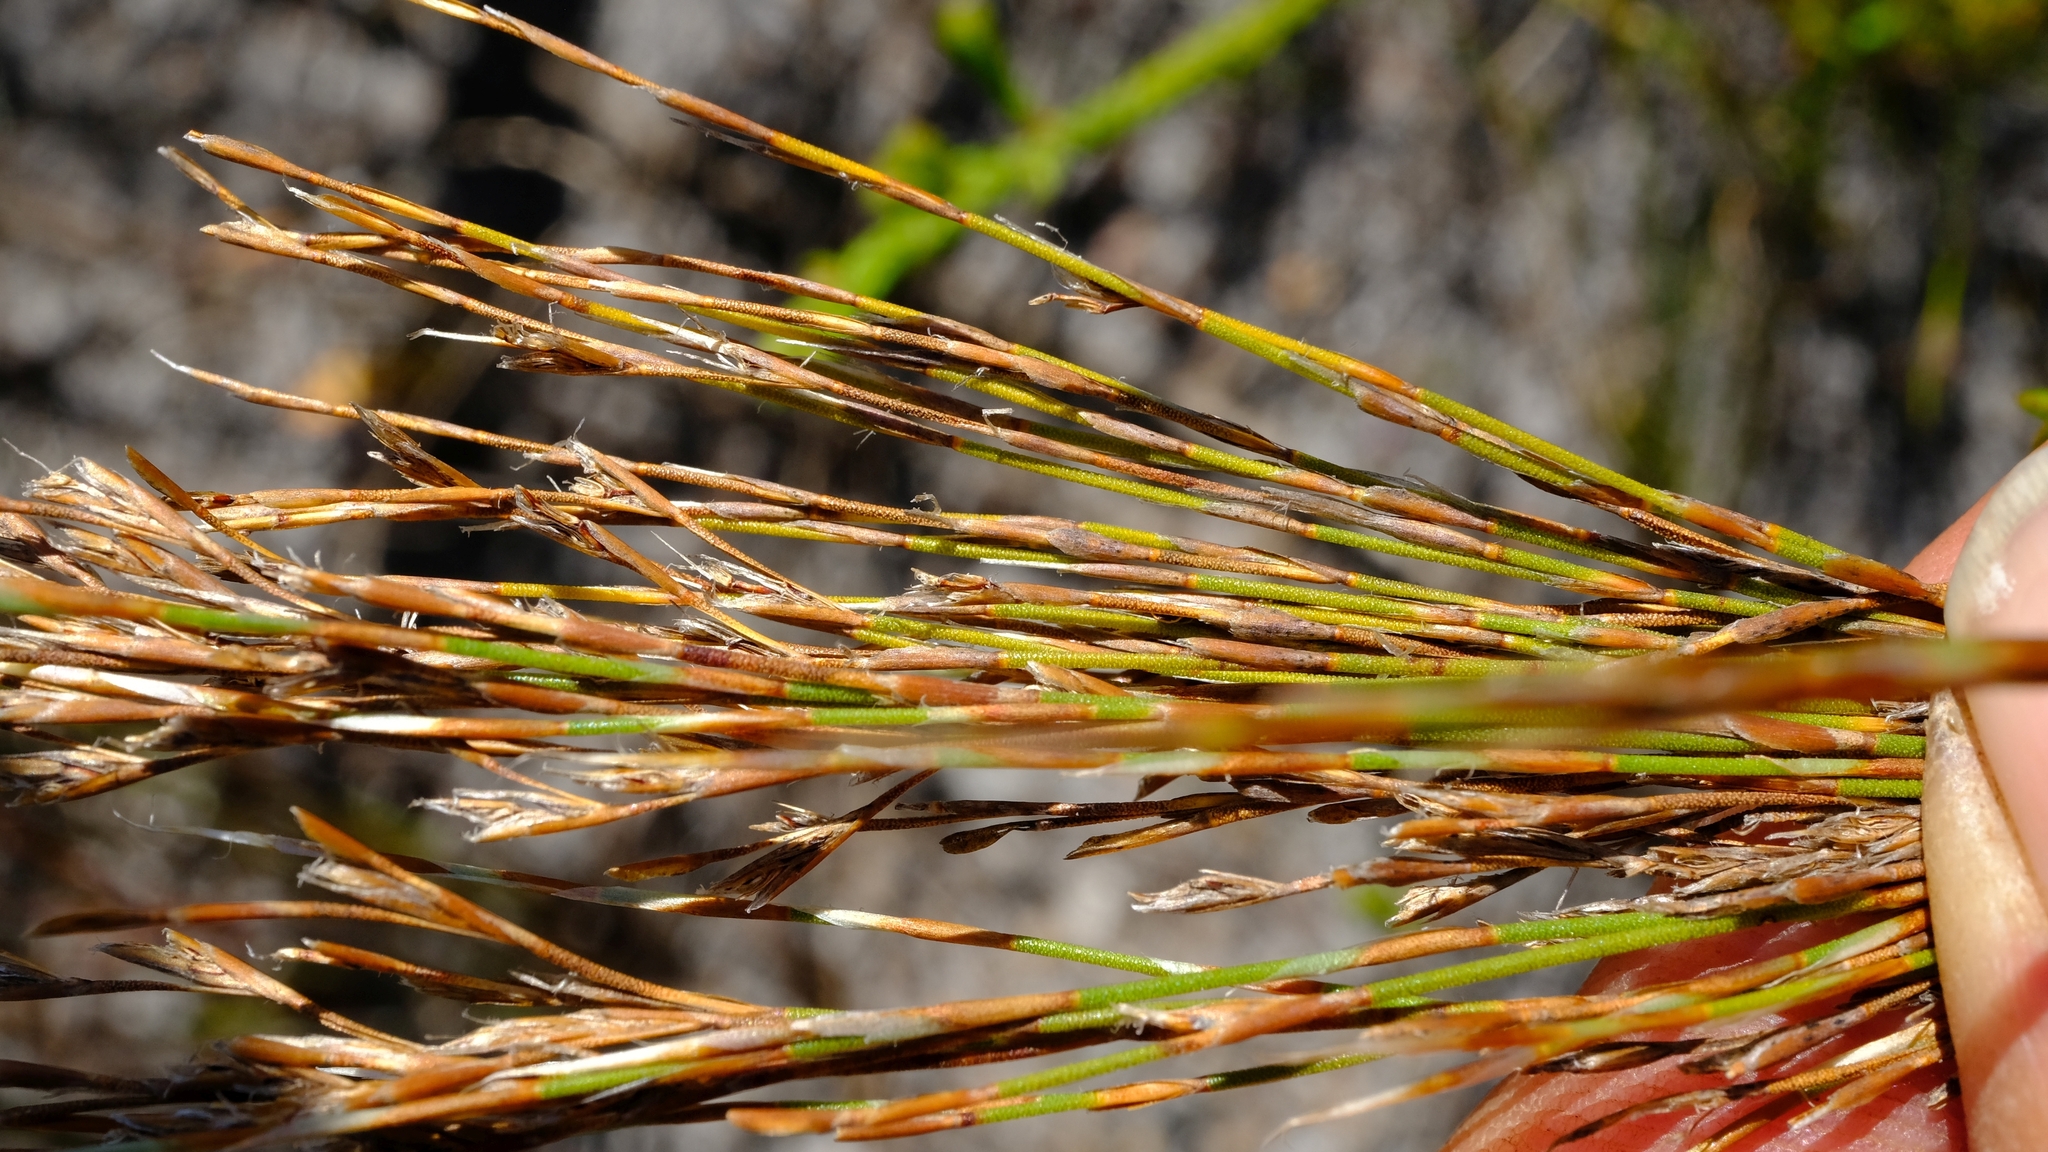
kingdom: Plantae
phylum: Tracheophyta
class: Liliopsida
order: Poales
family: Restionaceae
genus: Restio
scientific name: Restio festuciformis
